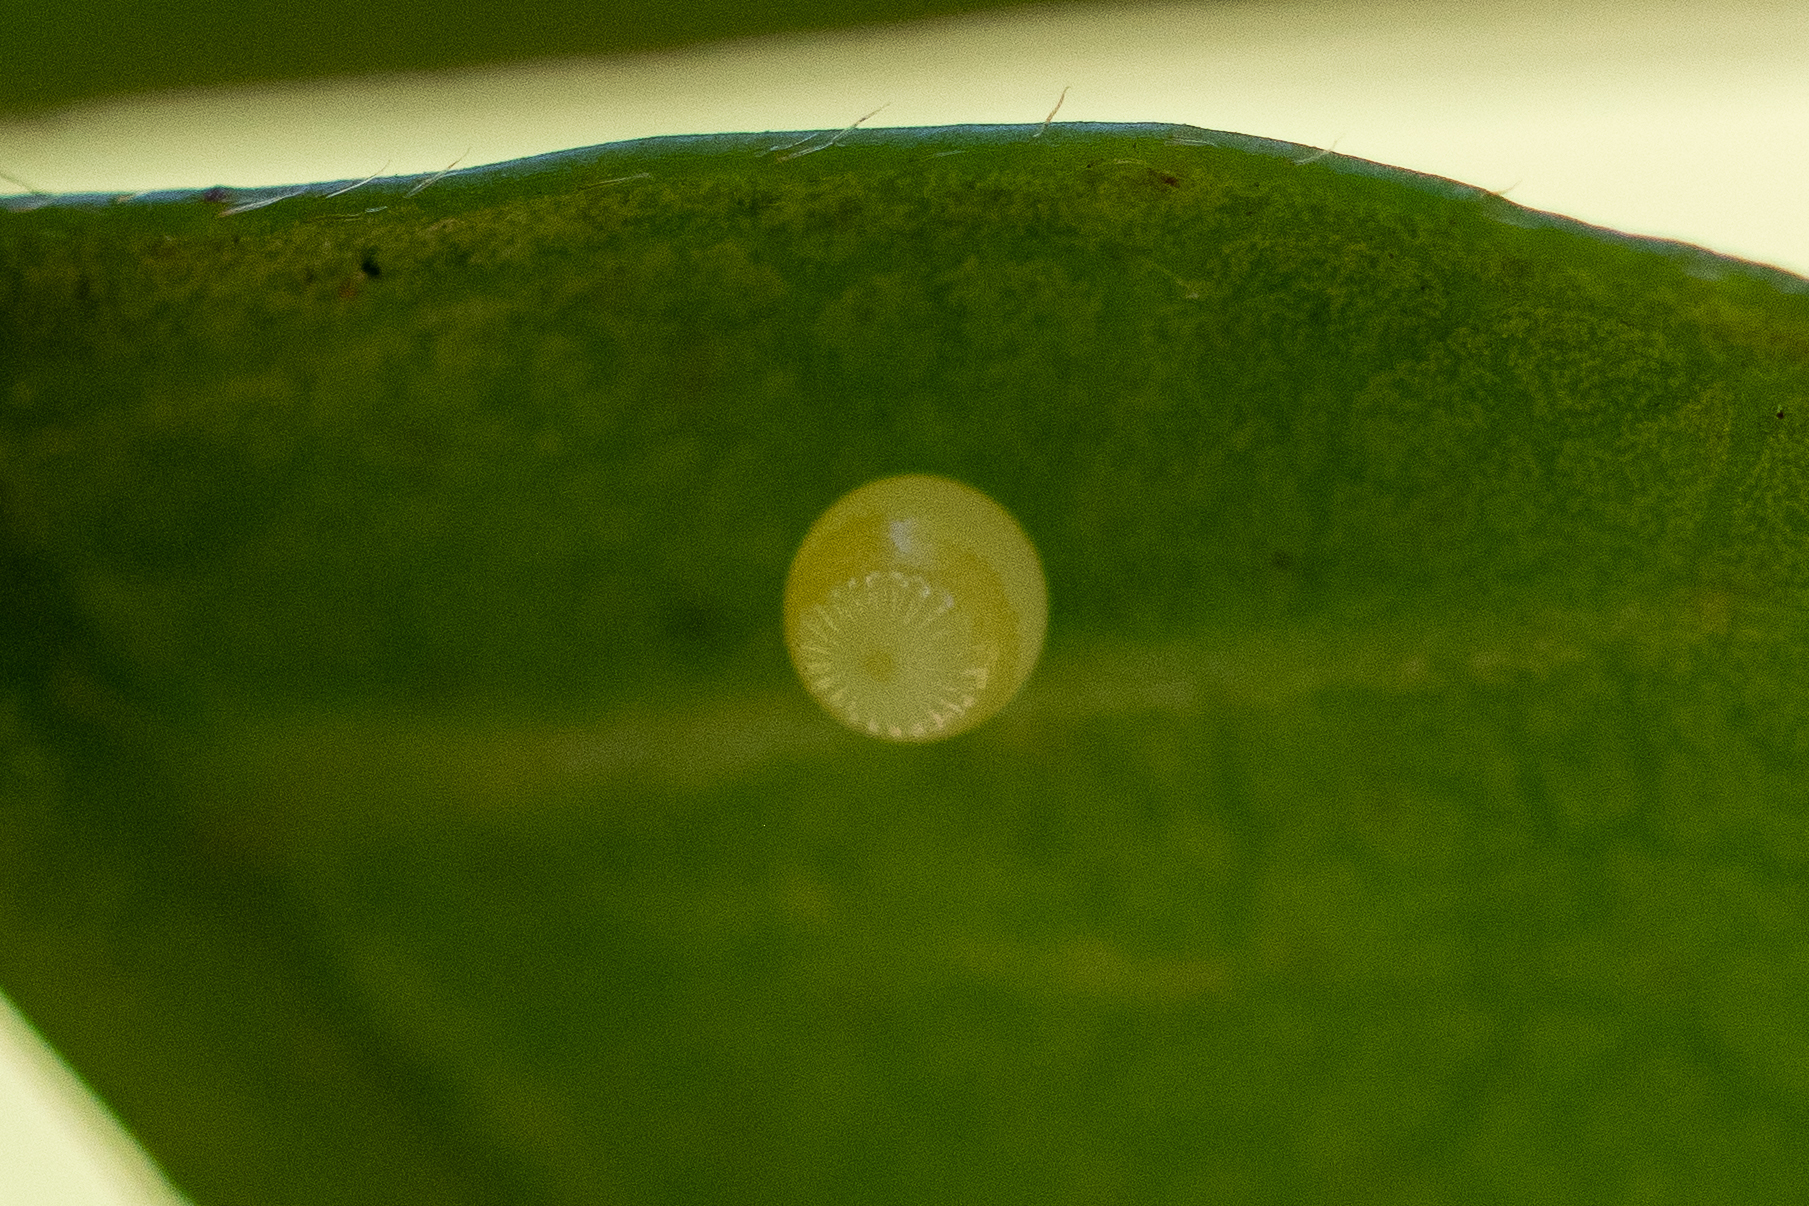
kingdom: Animalia
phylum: Arthropoda
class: Insecta
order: Lepidoptera
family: Nymphalidae
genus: Charaxes
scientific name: Charaxes brutus
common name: White-barred charaxes
